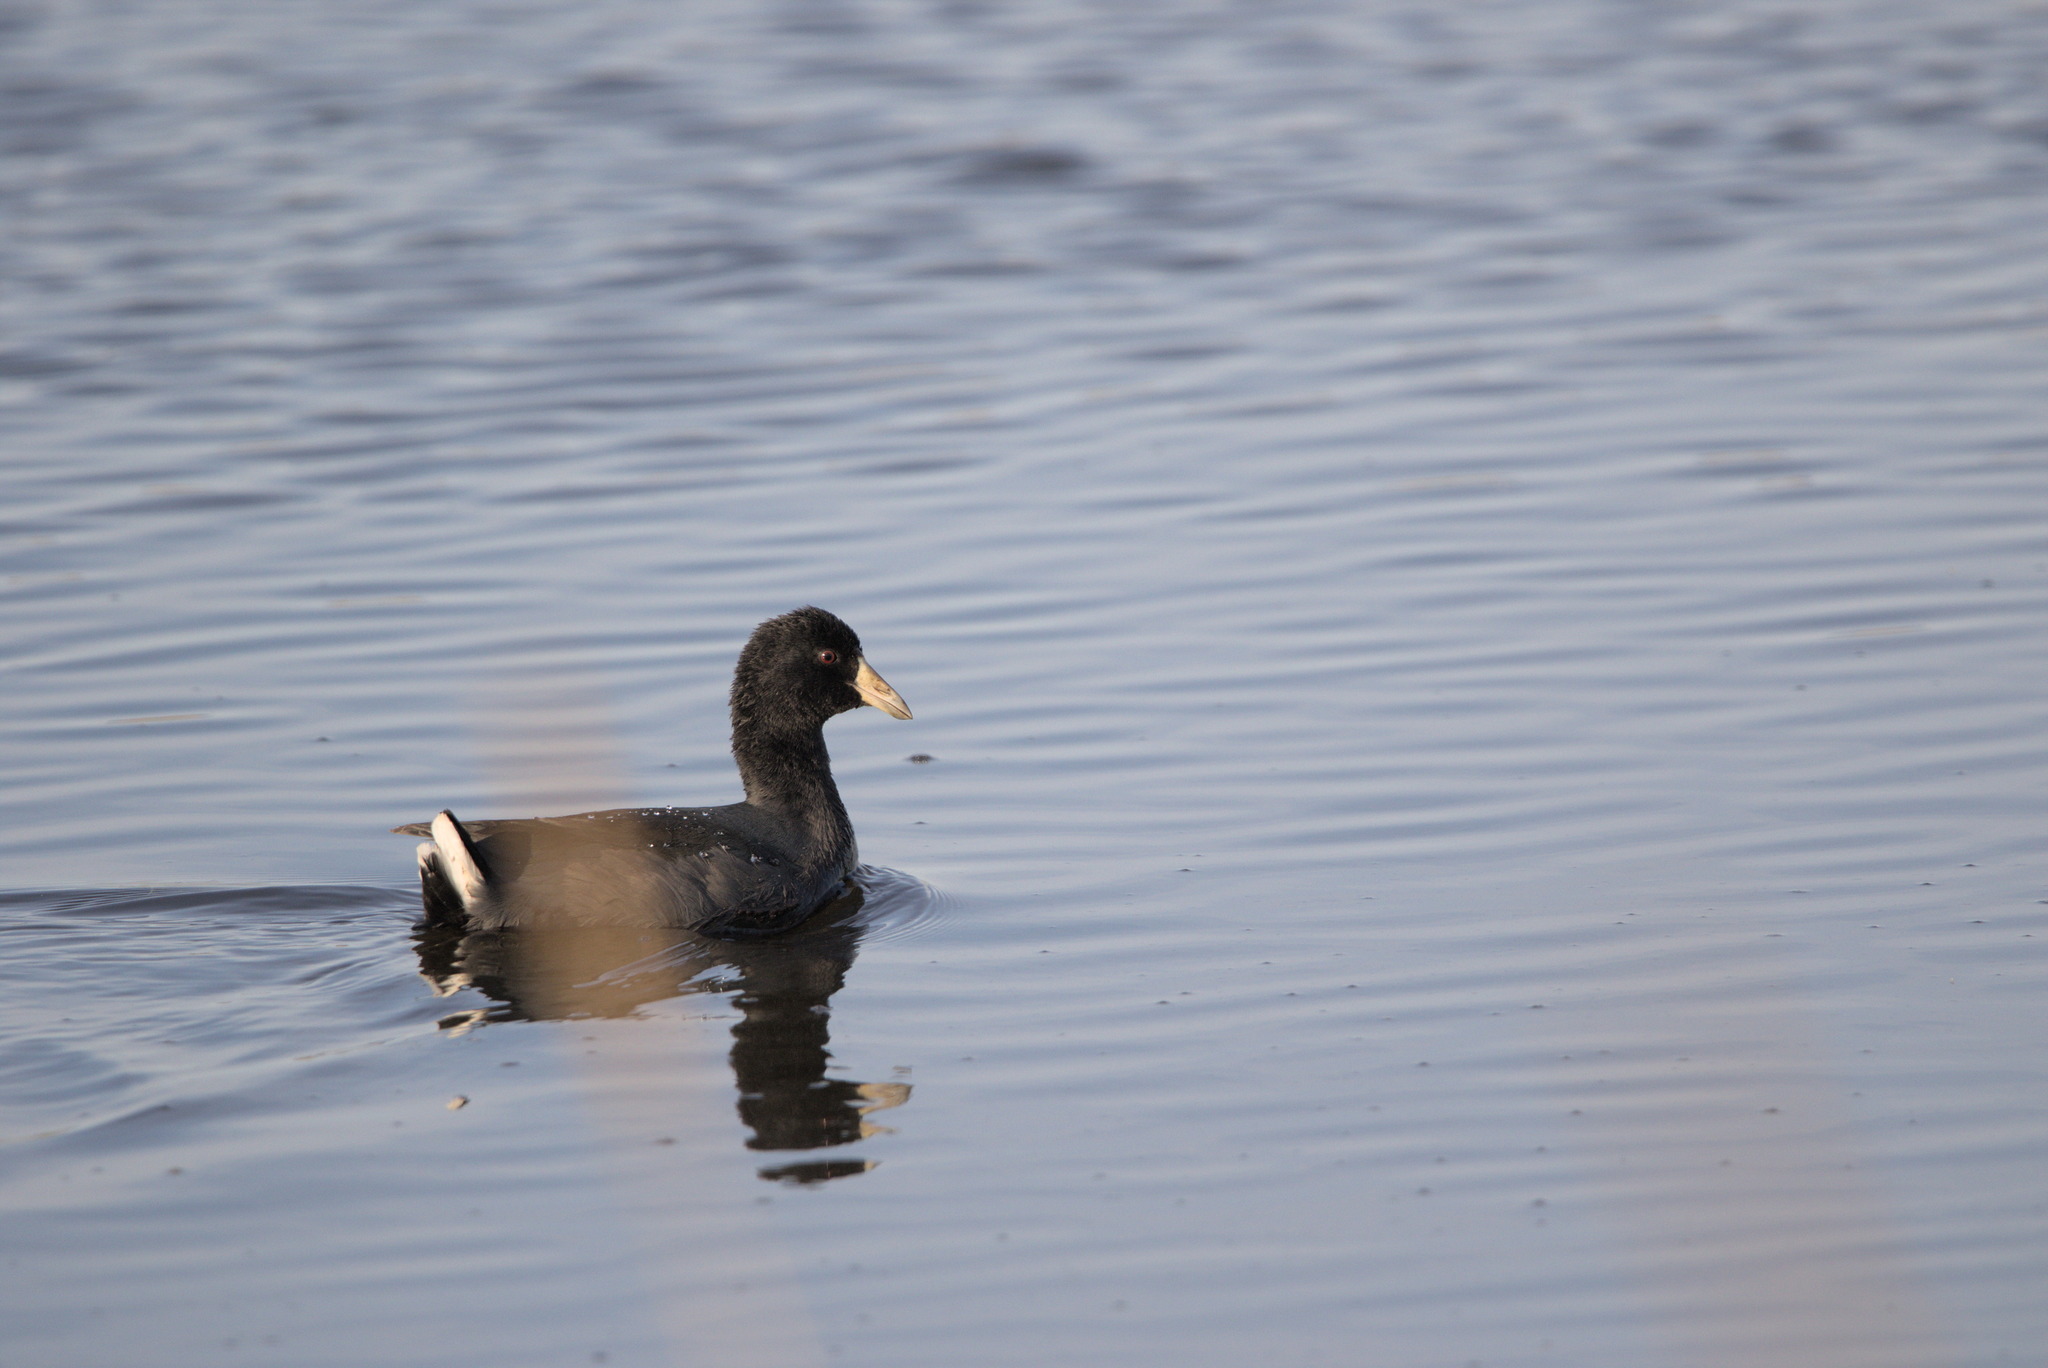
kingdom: Animalia
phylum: Chordata
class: Aves
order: Gruiformes
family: Rallidae
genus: Fulica
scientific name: Fulica americana
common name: American coot
